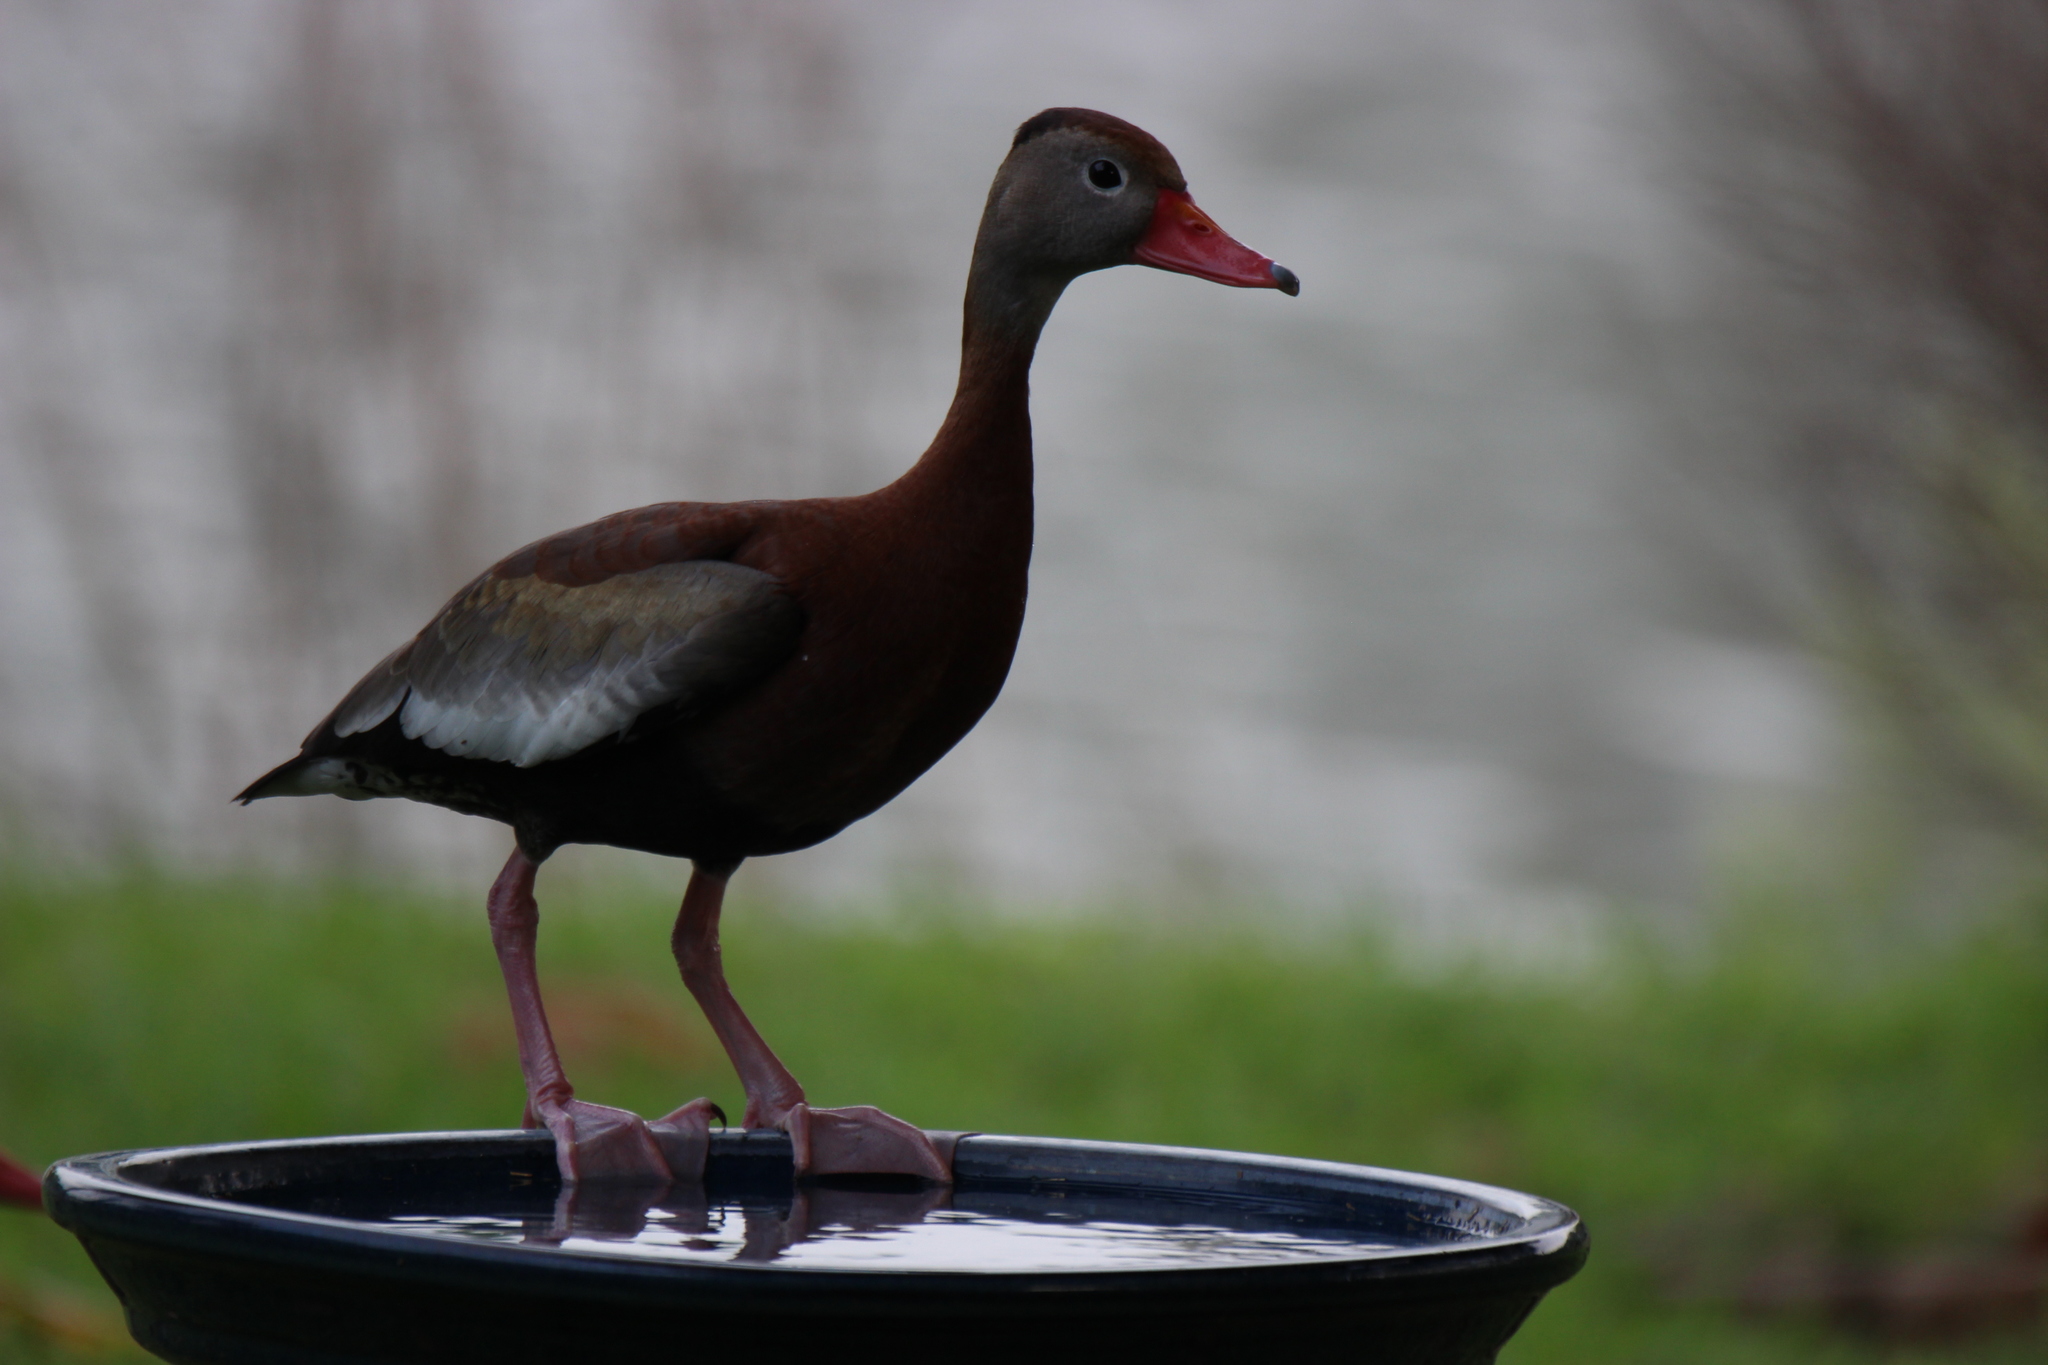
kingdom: Animalia
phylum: Chordata
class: Aves
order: Anseriformes
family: Anatidae
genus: Dendrocygna
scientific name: Dendrocygna autumnalis
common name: Black-bellied whistling duck
